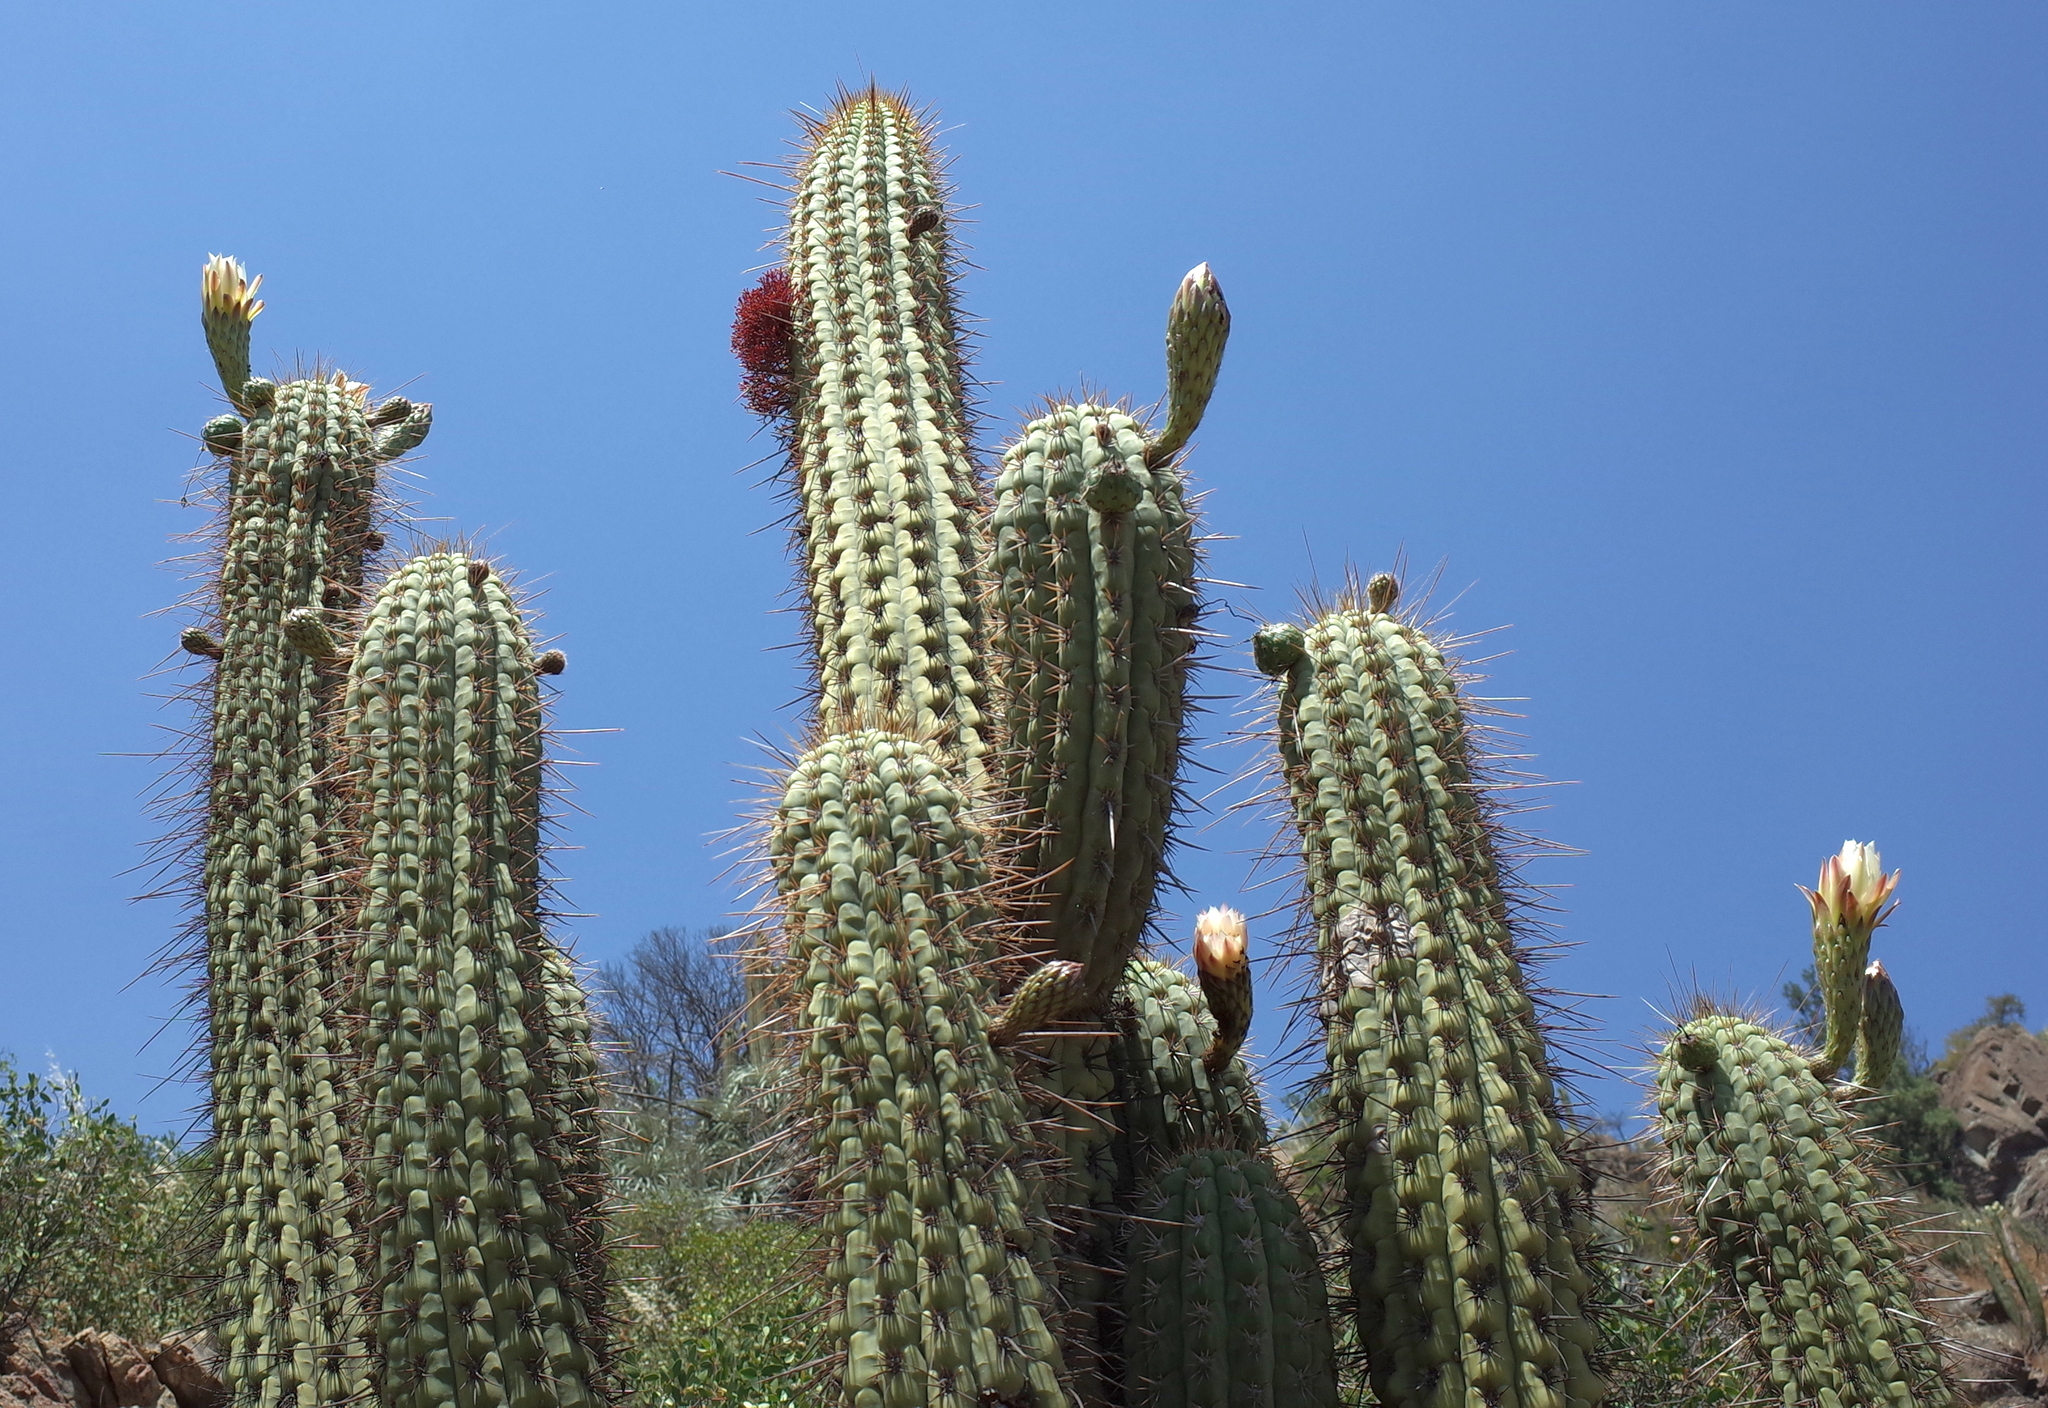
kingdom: Plantae
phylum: Tracheophyta
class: Magnoliopsida
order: Caryophyllales
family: Cactaceae
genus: Leucostele
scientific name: Leucostele chiloensis
